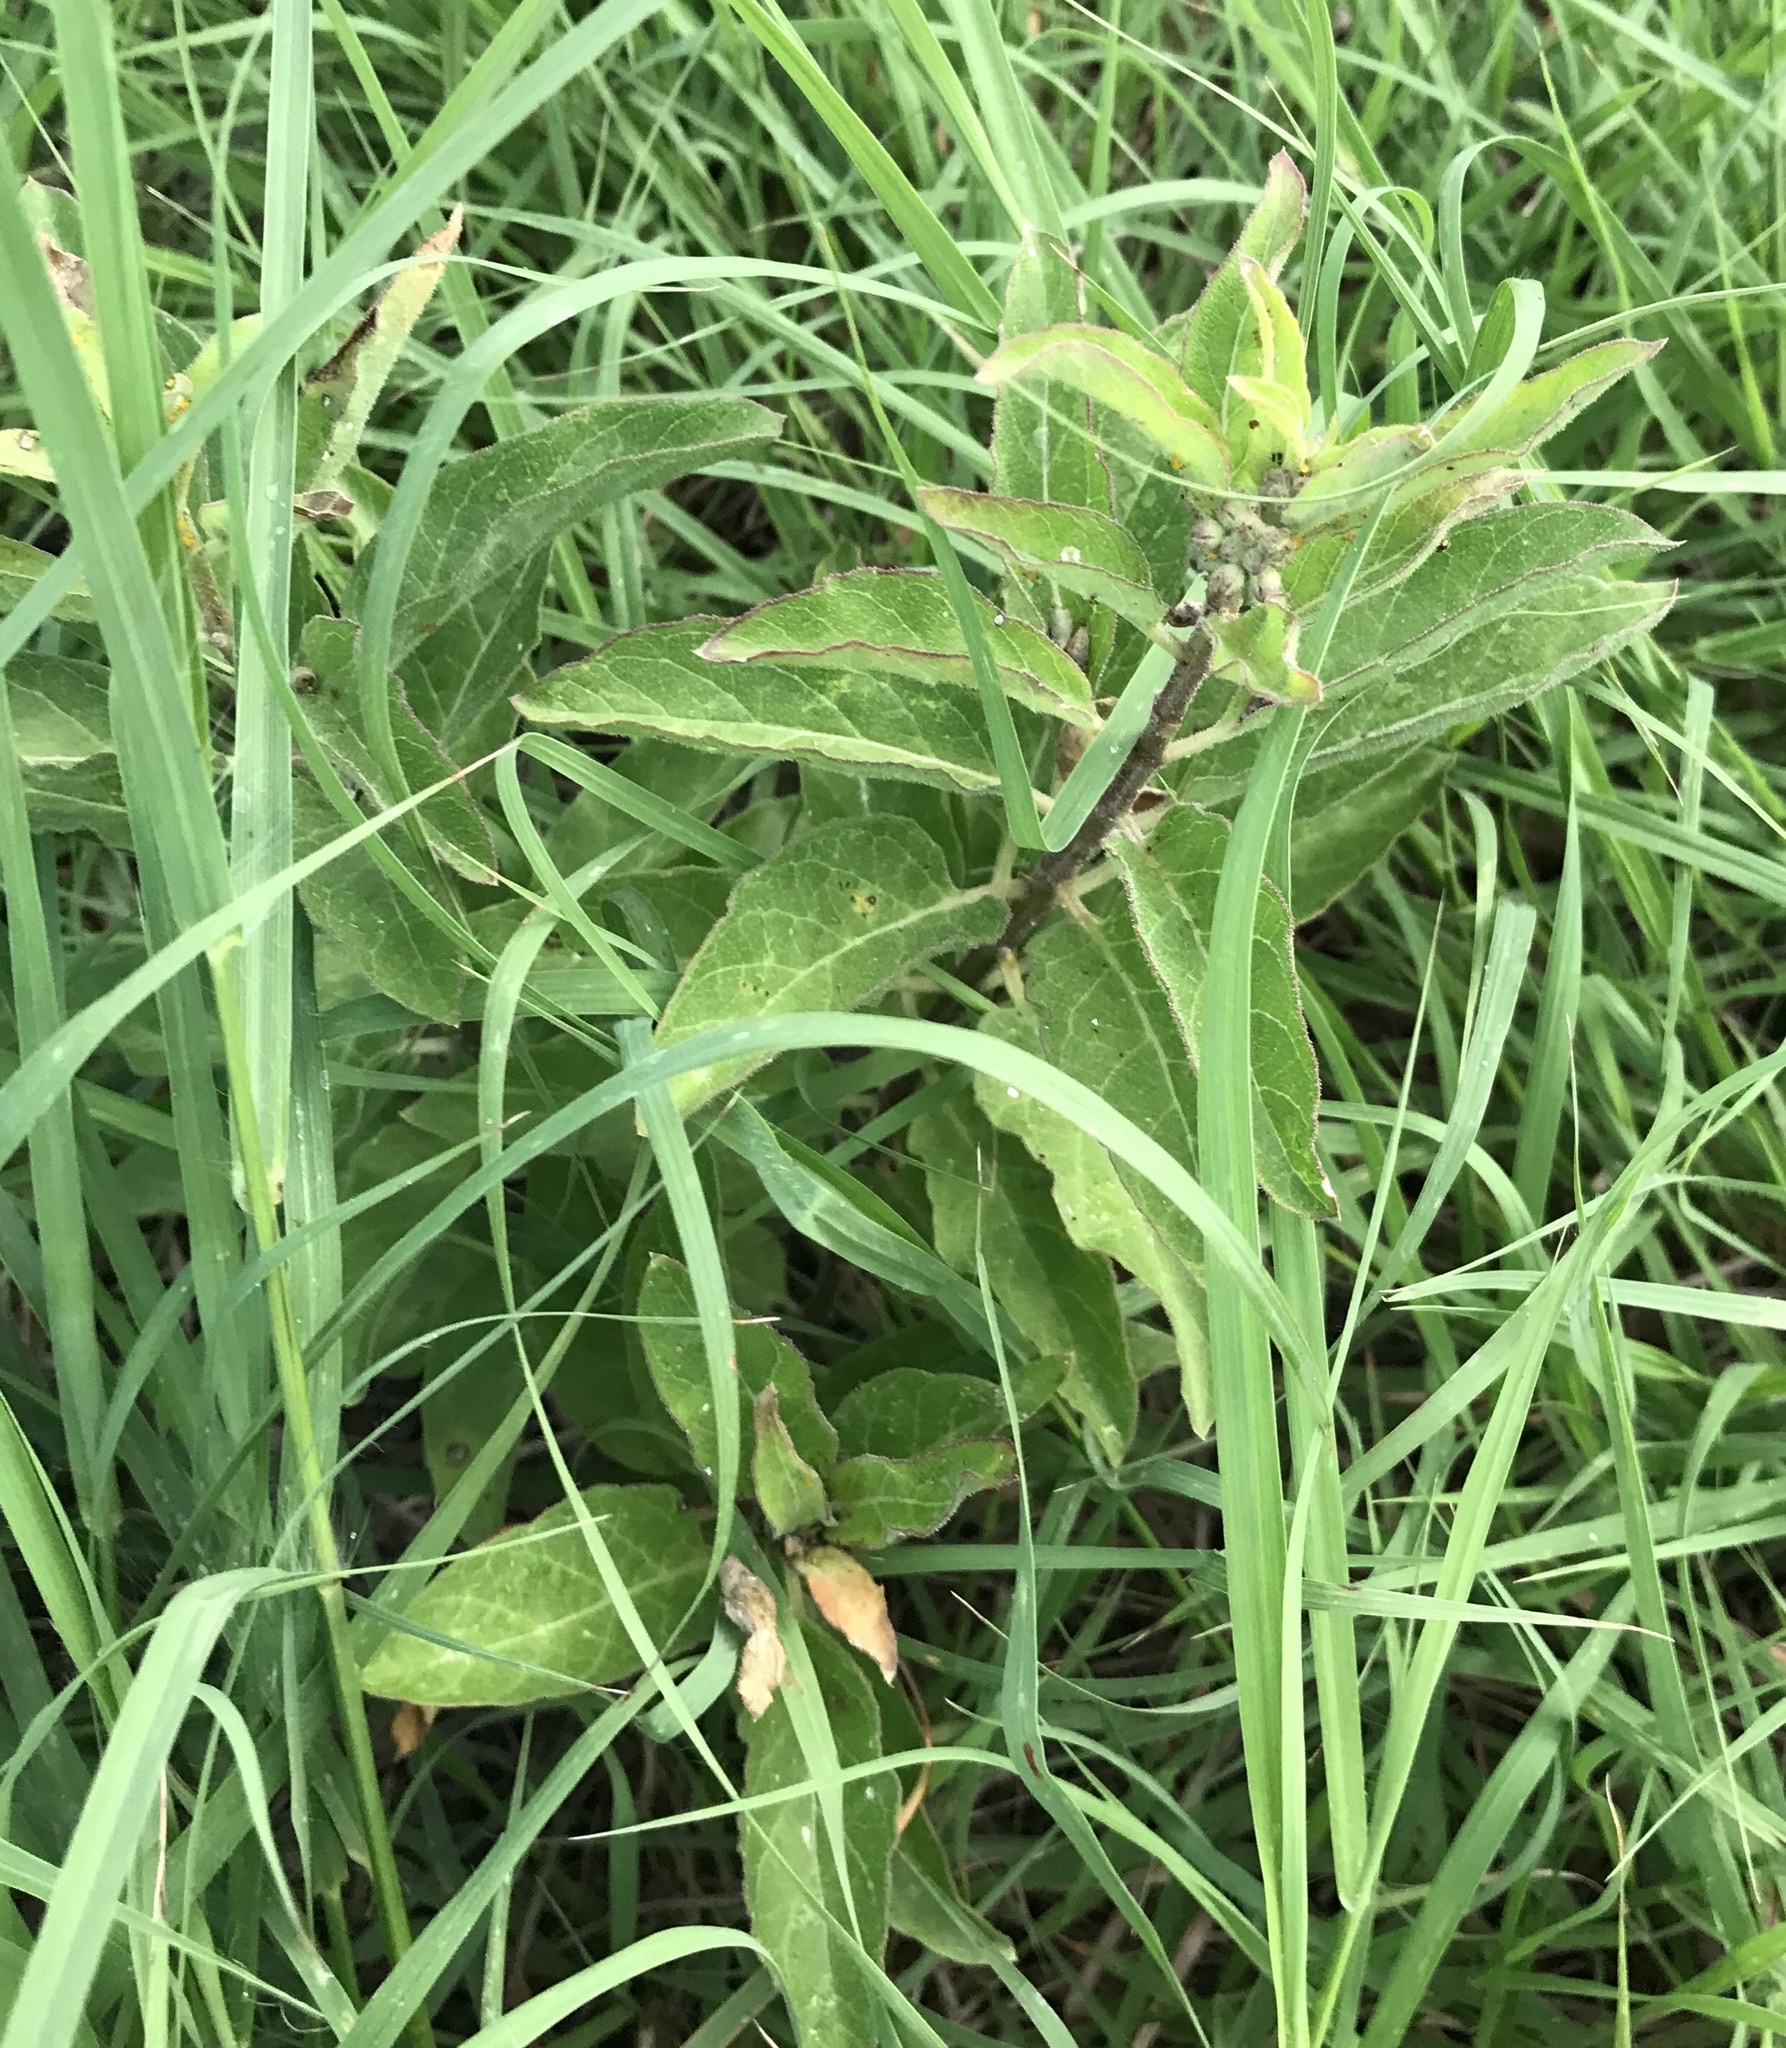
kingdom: Plantae
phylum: Tracheophyta
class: Magnoliopsida
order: Gentianales
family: Apocynaceae
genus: Asclepias
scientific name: Asclepias oenotheroides
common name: Zizotes milkweed
